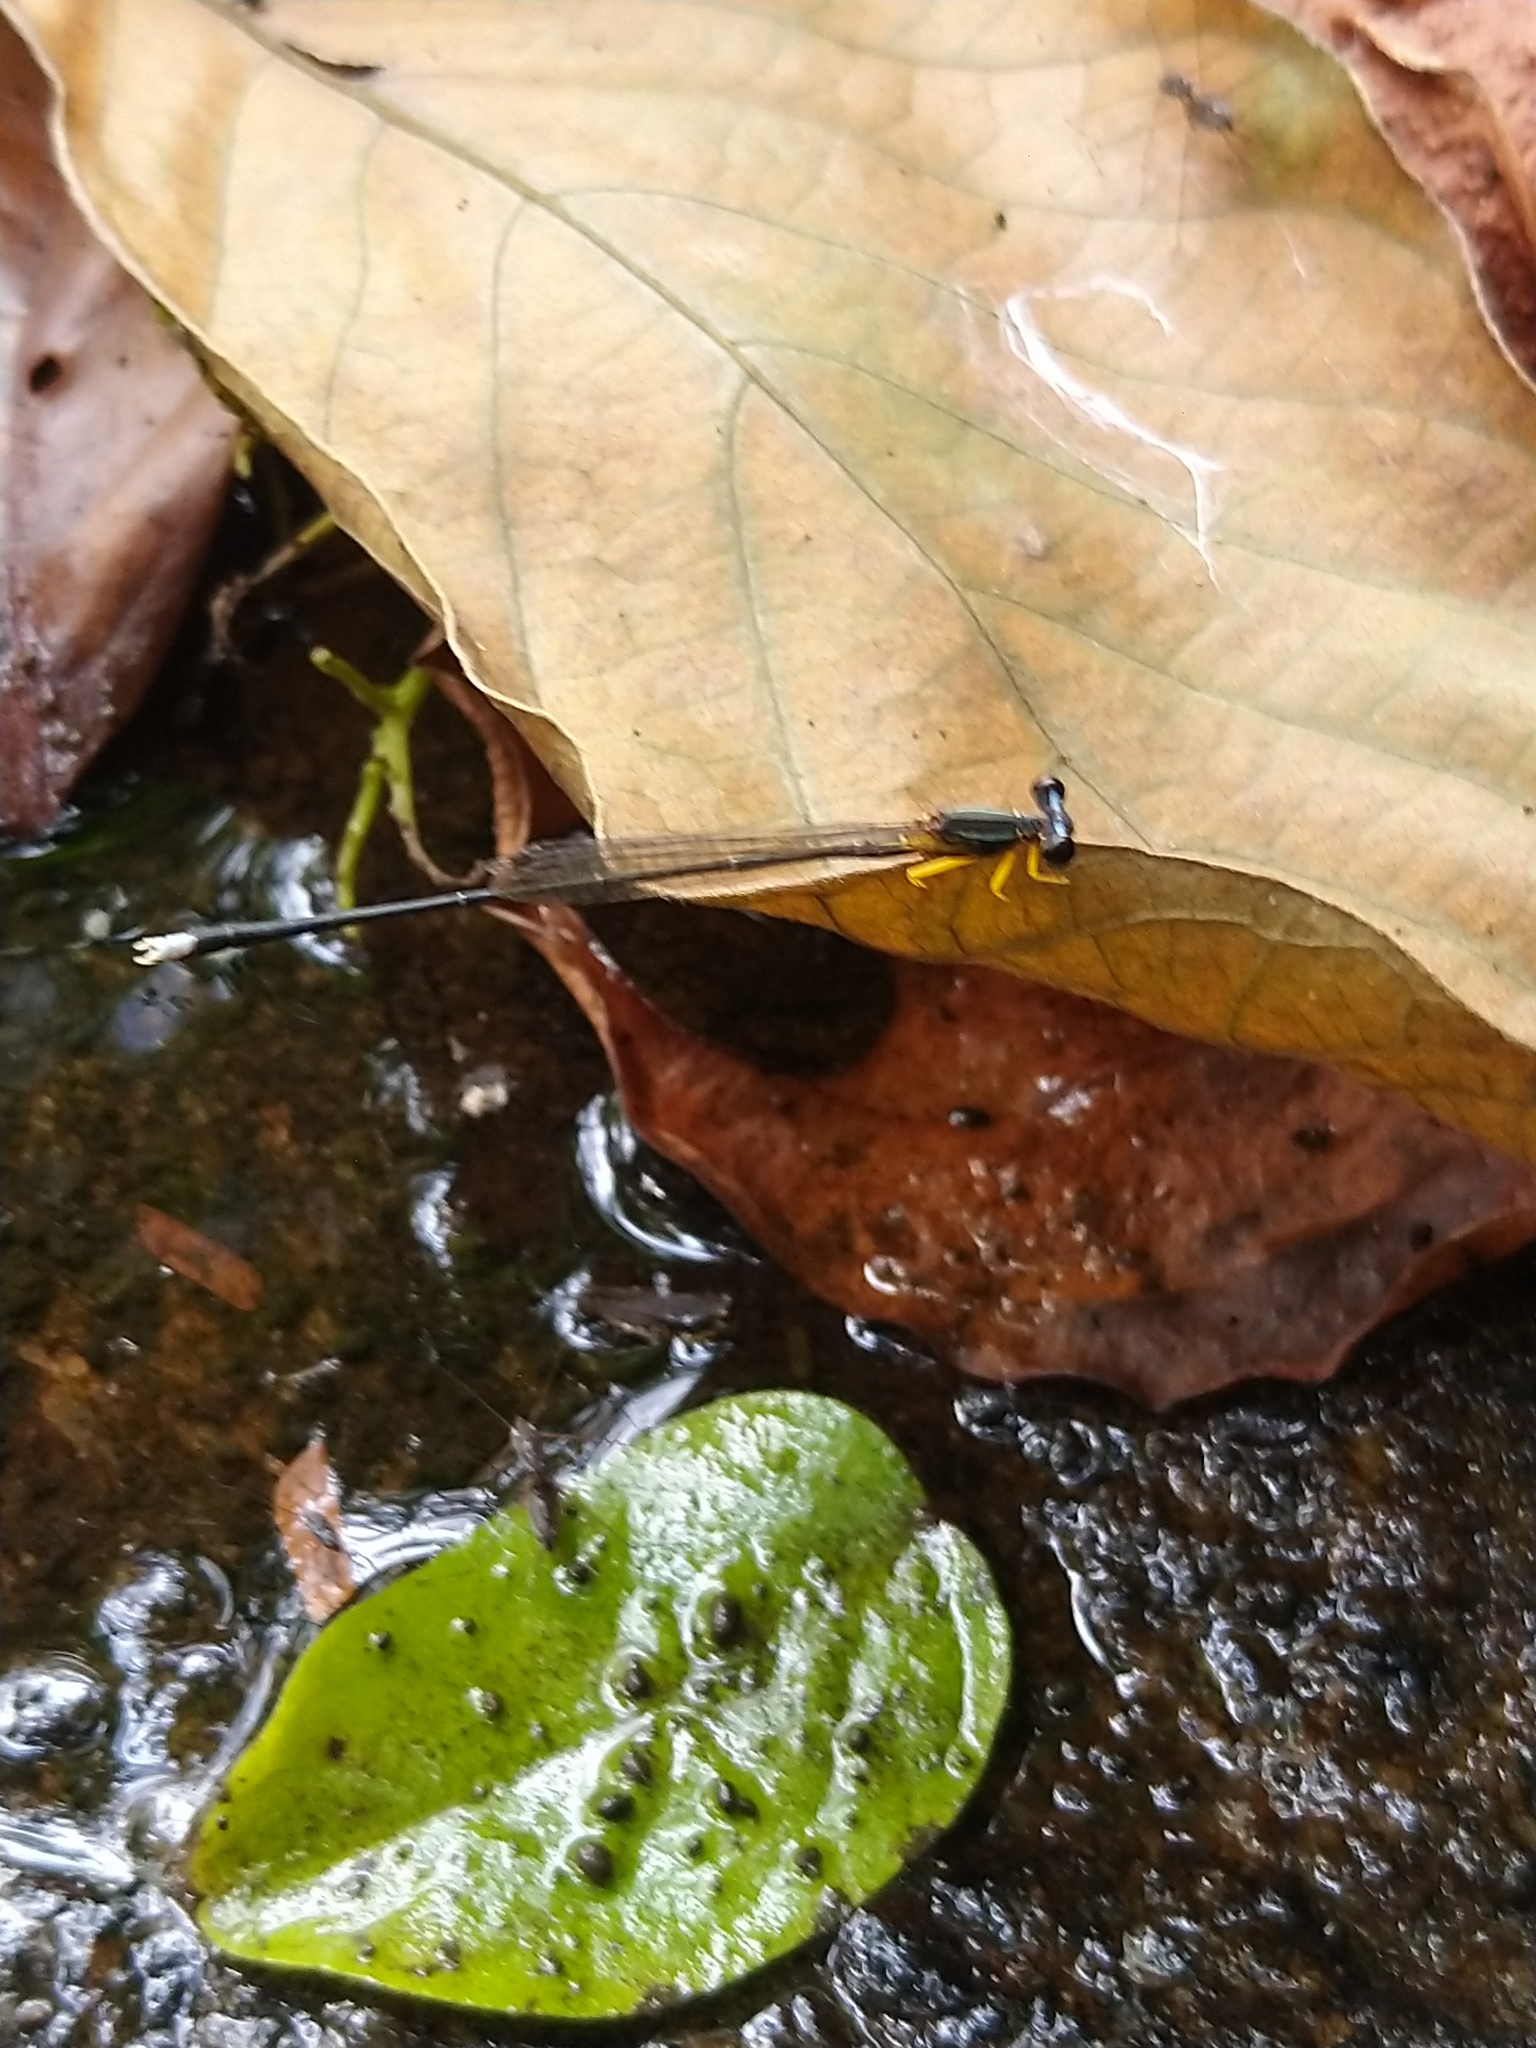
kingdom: Animalia
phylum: Arthropoda
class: Insecta
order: Odonata
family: Platycnemididae
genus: Copera
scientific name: Copera vittata
